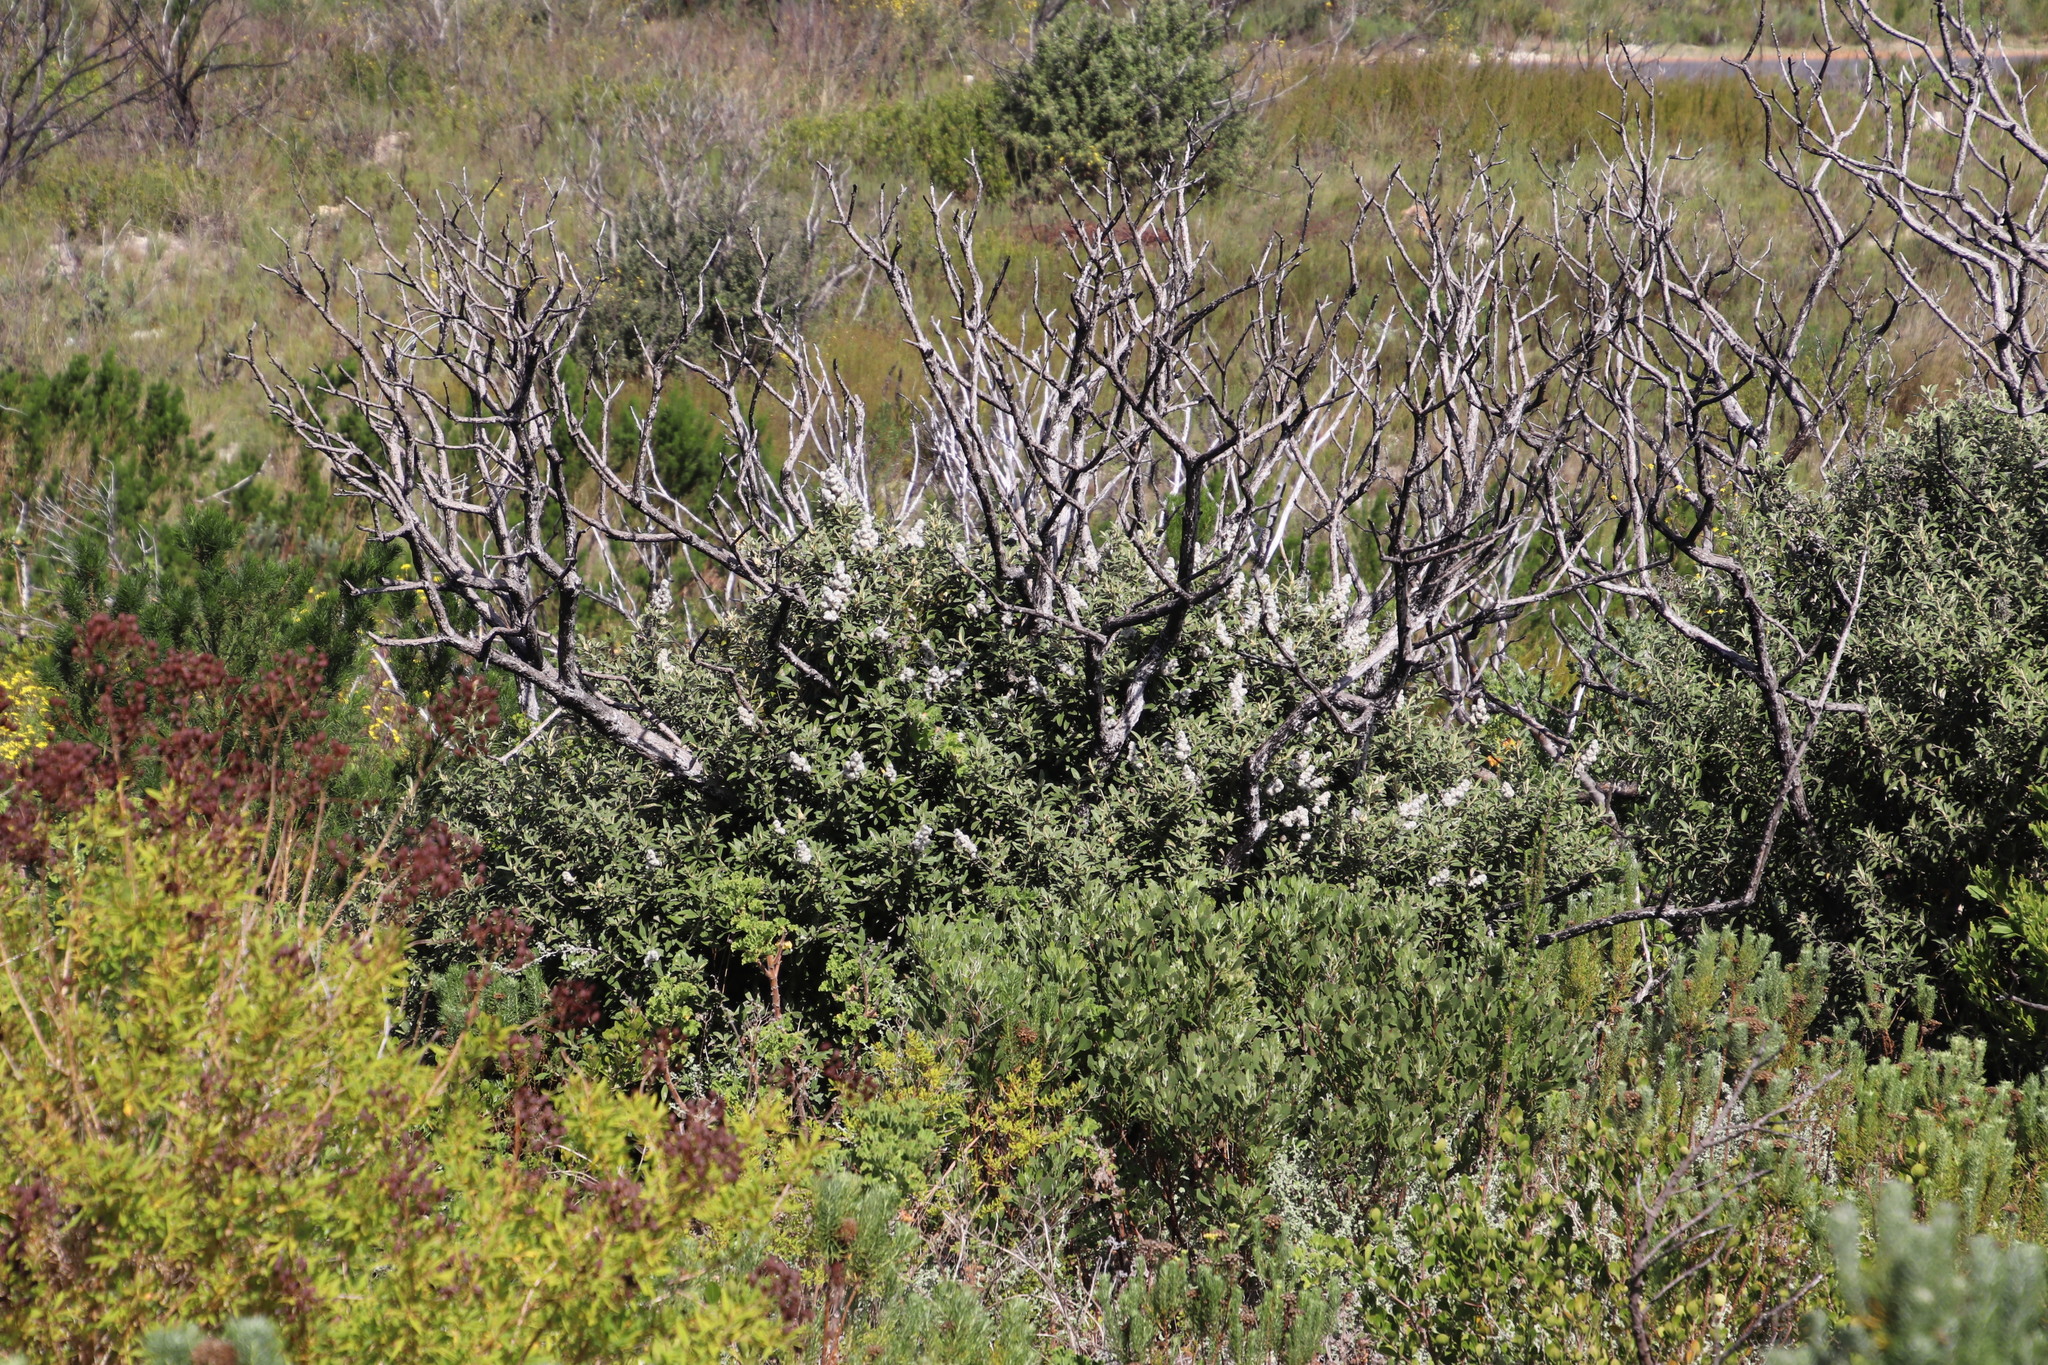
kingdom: Plantae
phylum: Tracheophyta
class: Magnoliopsida
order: Asterales
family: Asteraceae
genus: Tarchonanthus
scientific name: Tarchonanthus littoralis
